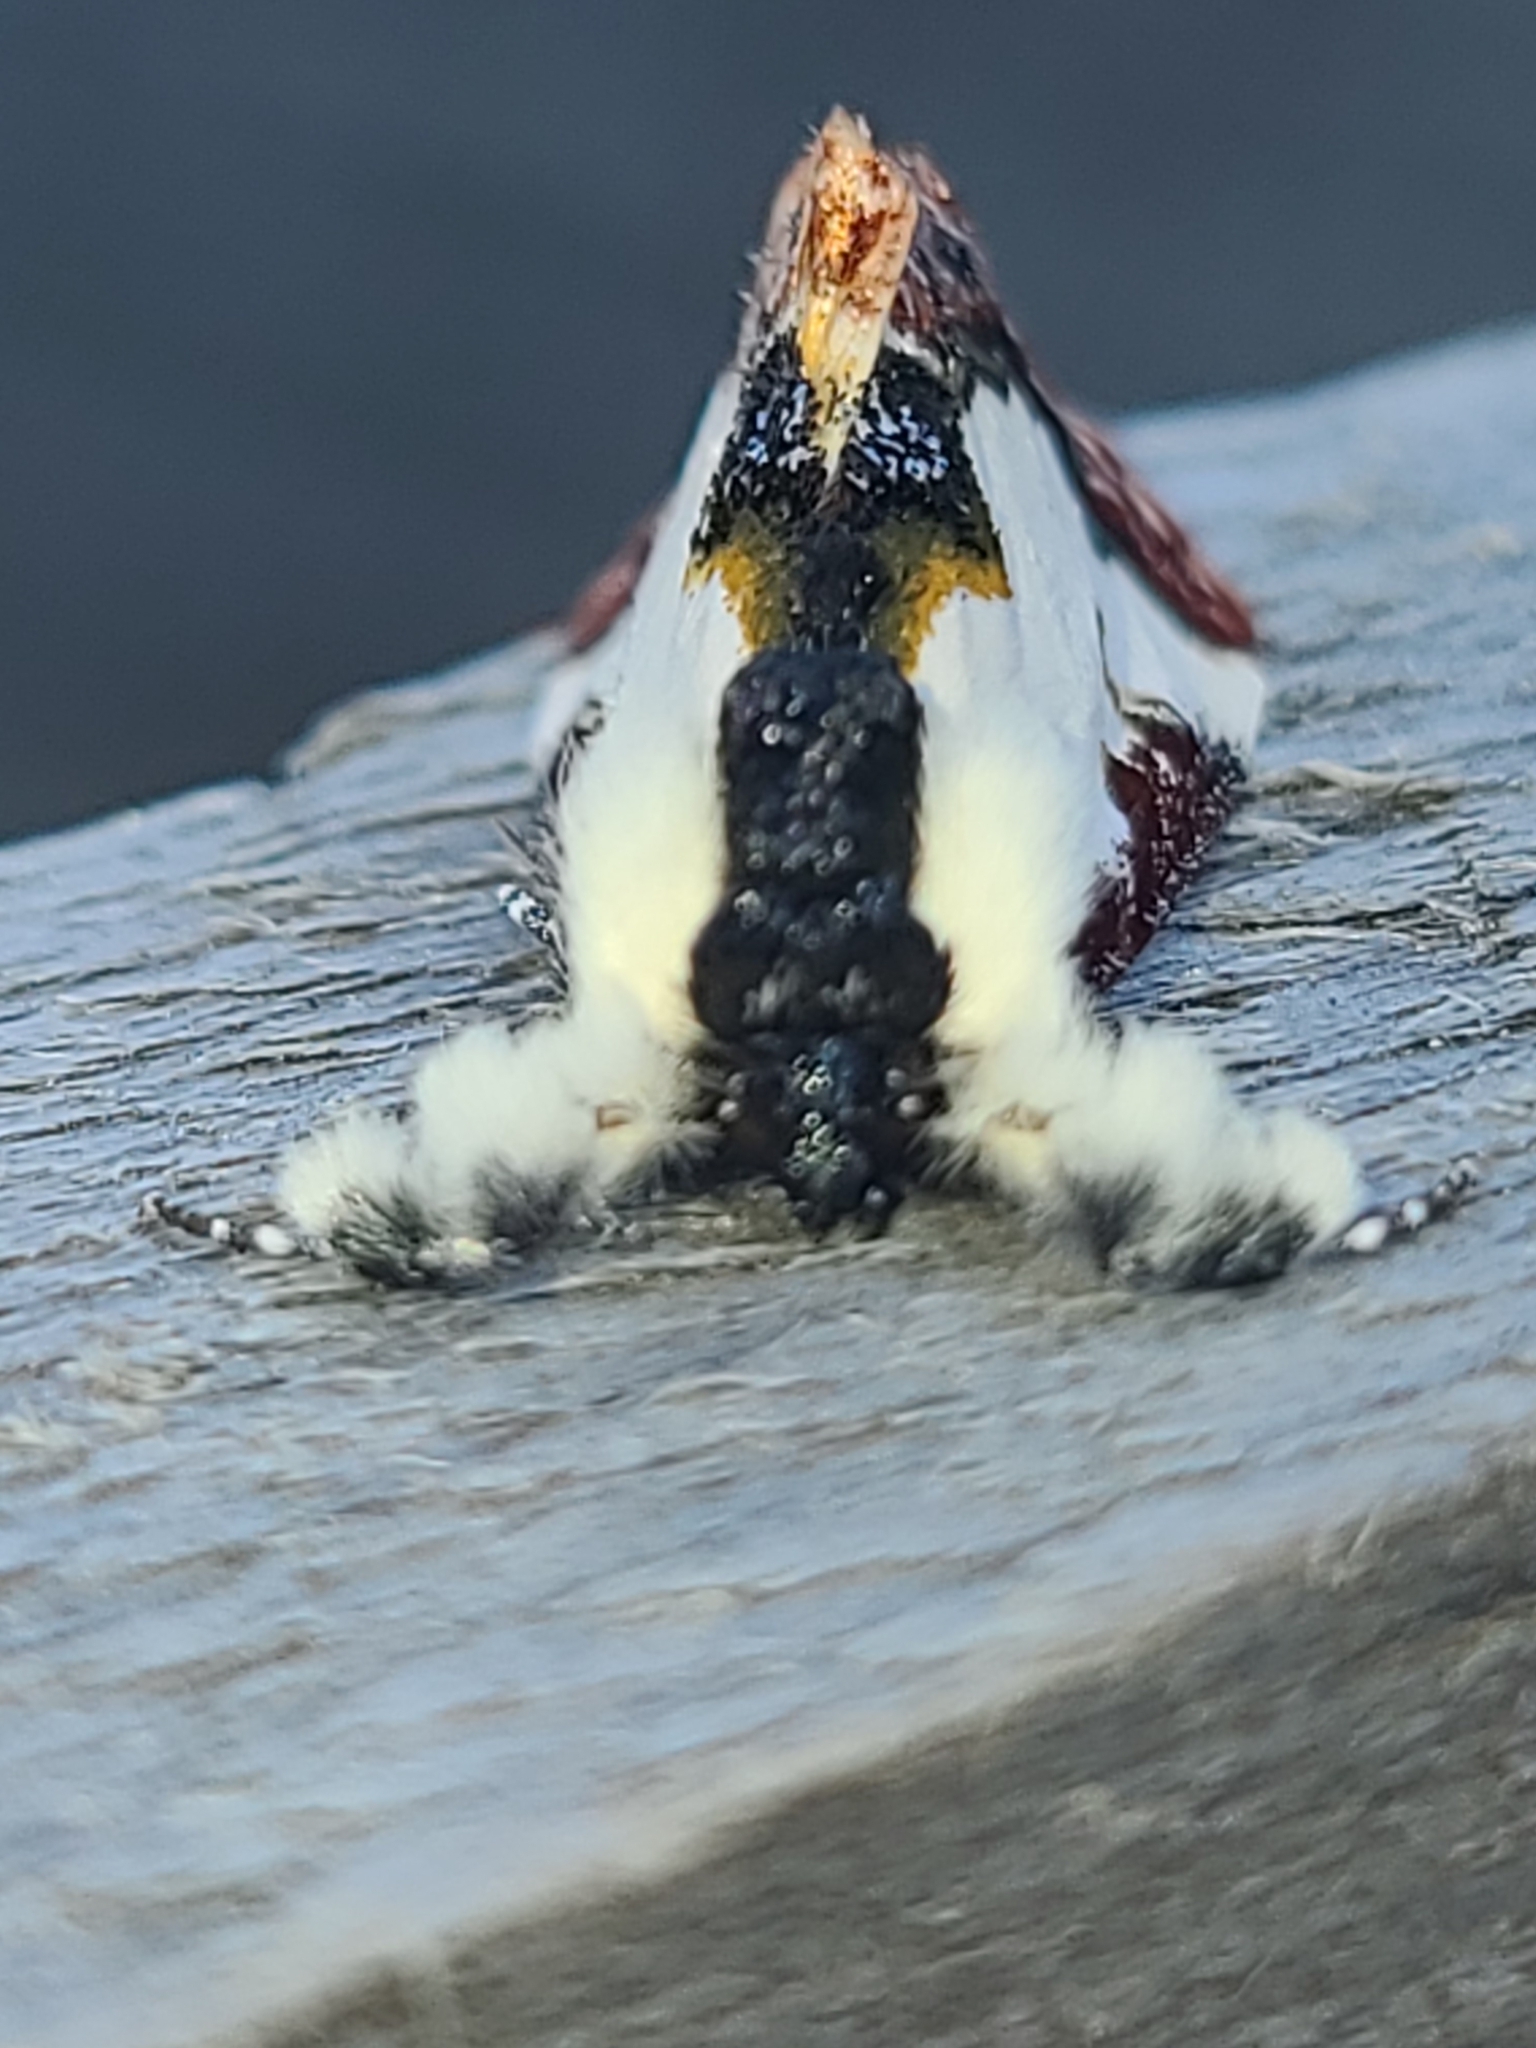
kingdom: Animalia
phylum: Arthropoda
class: Insecta
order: Lepidoptera
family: Noctuidae
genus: Eudryas
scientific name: Eudryas unio
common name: Pearly wood-nymph
